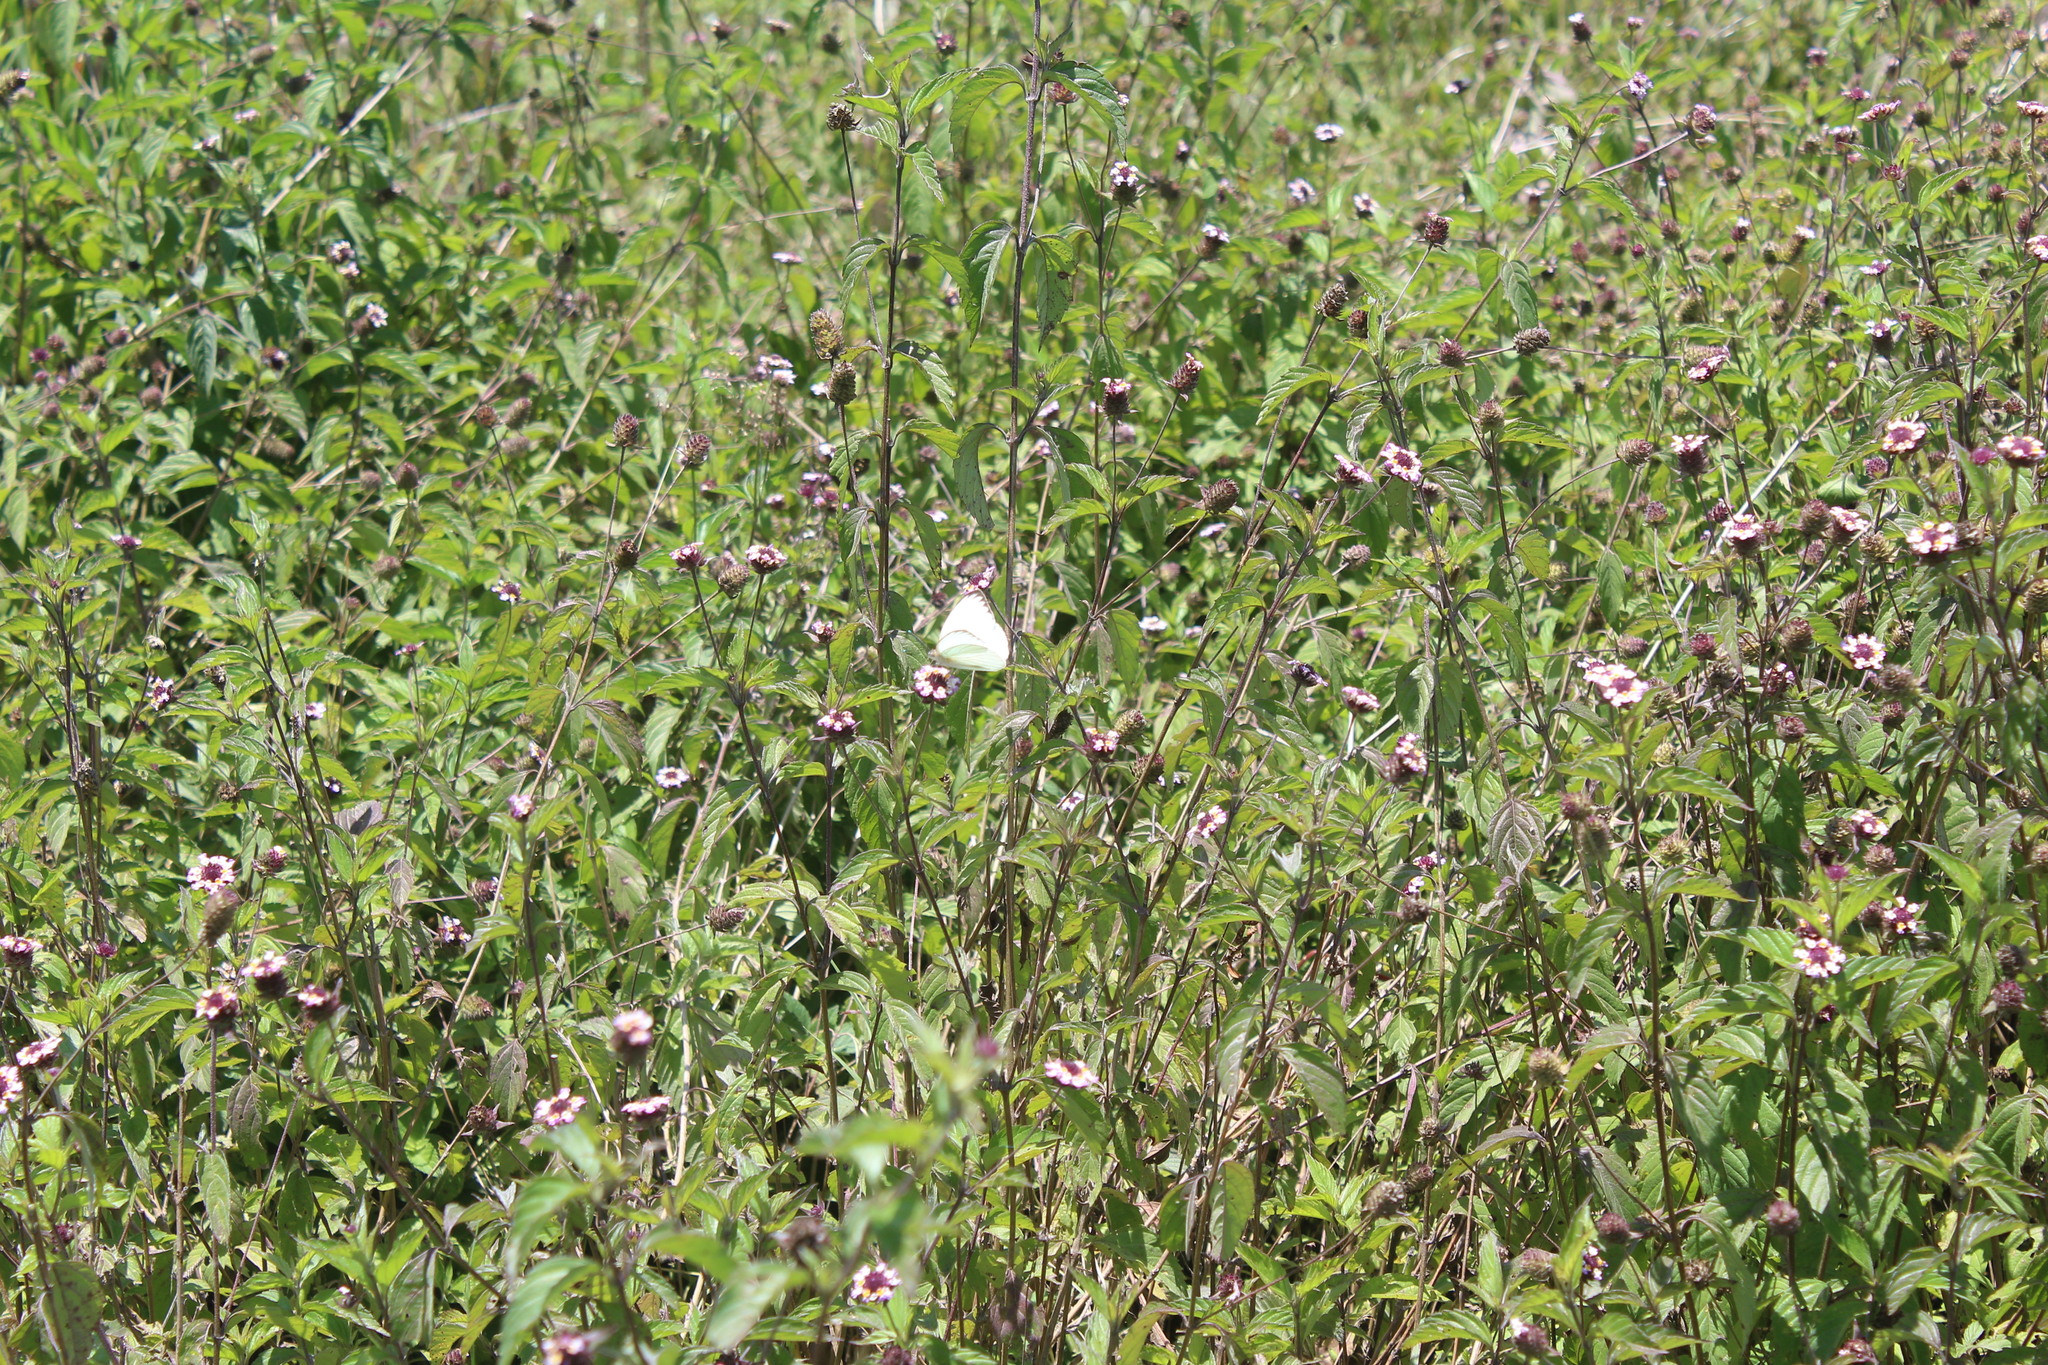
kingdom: Animalia
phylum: Arthropoda
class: Insecta
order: Lepidoptera
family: Pieridae
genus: Ascia
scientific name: Ascia monuste
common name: Great southern white
